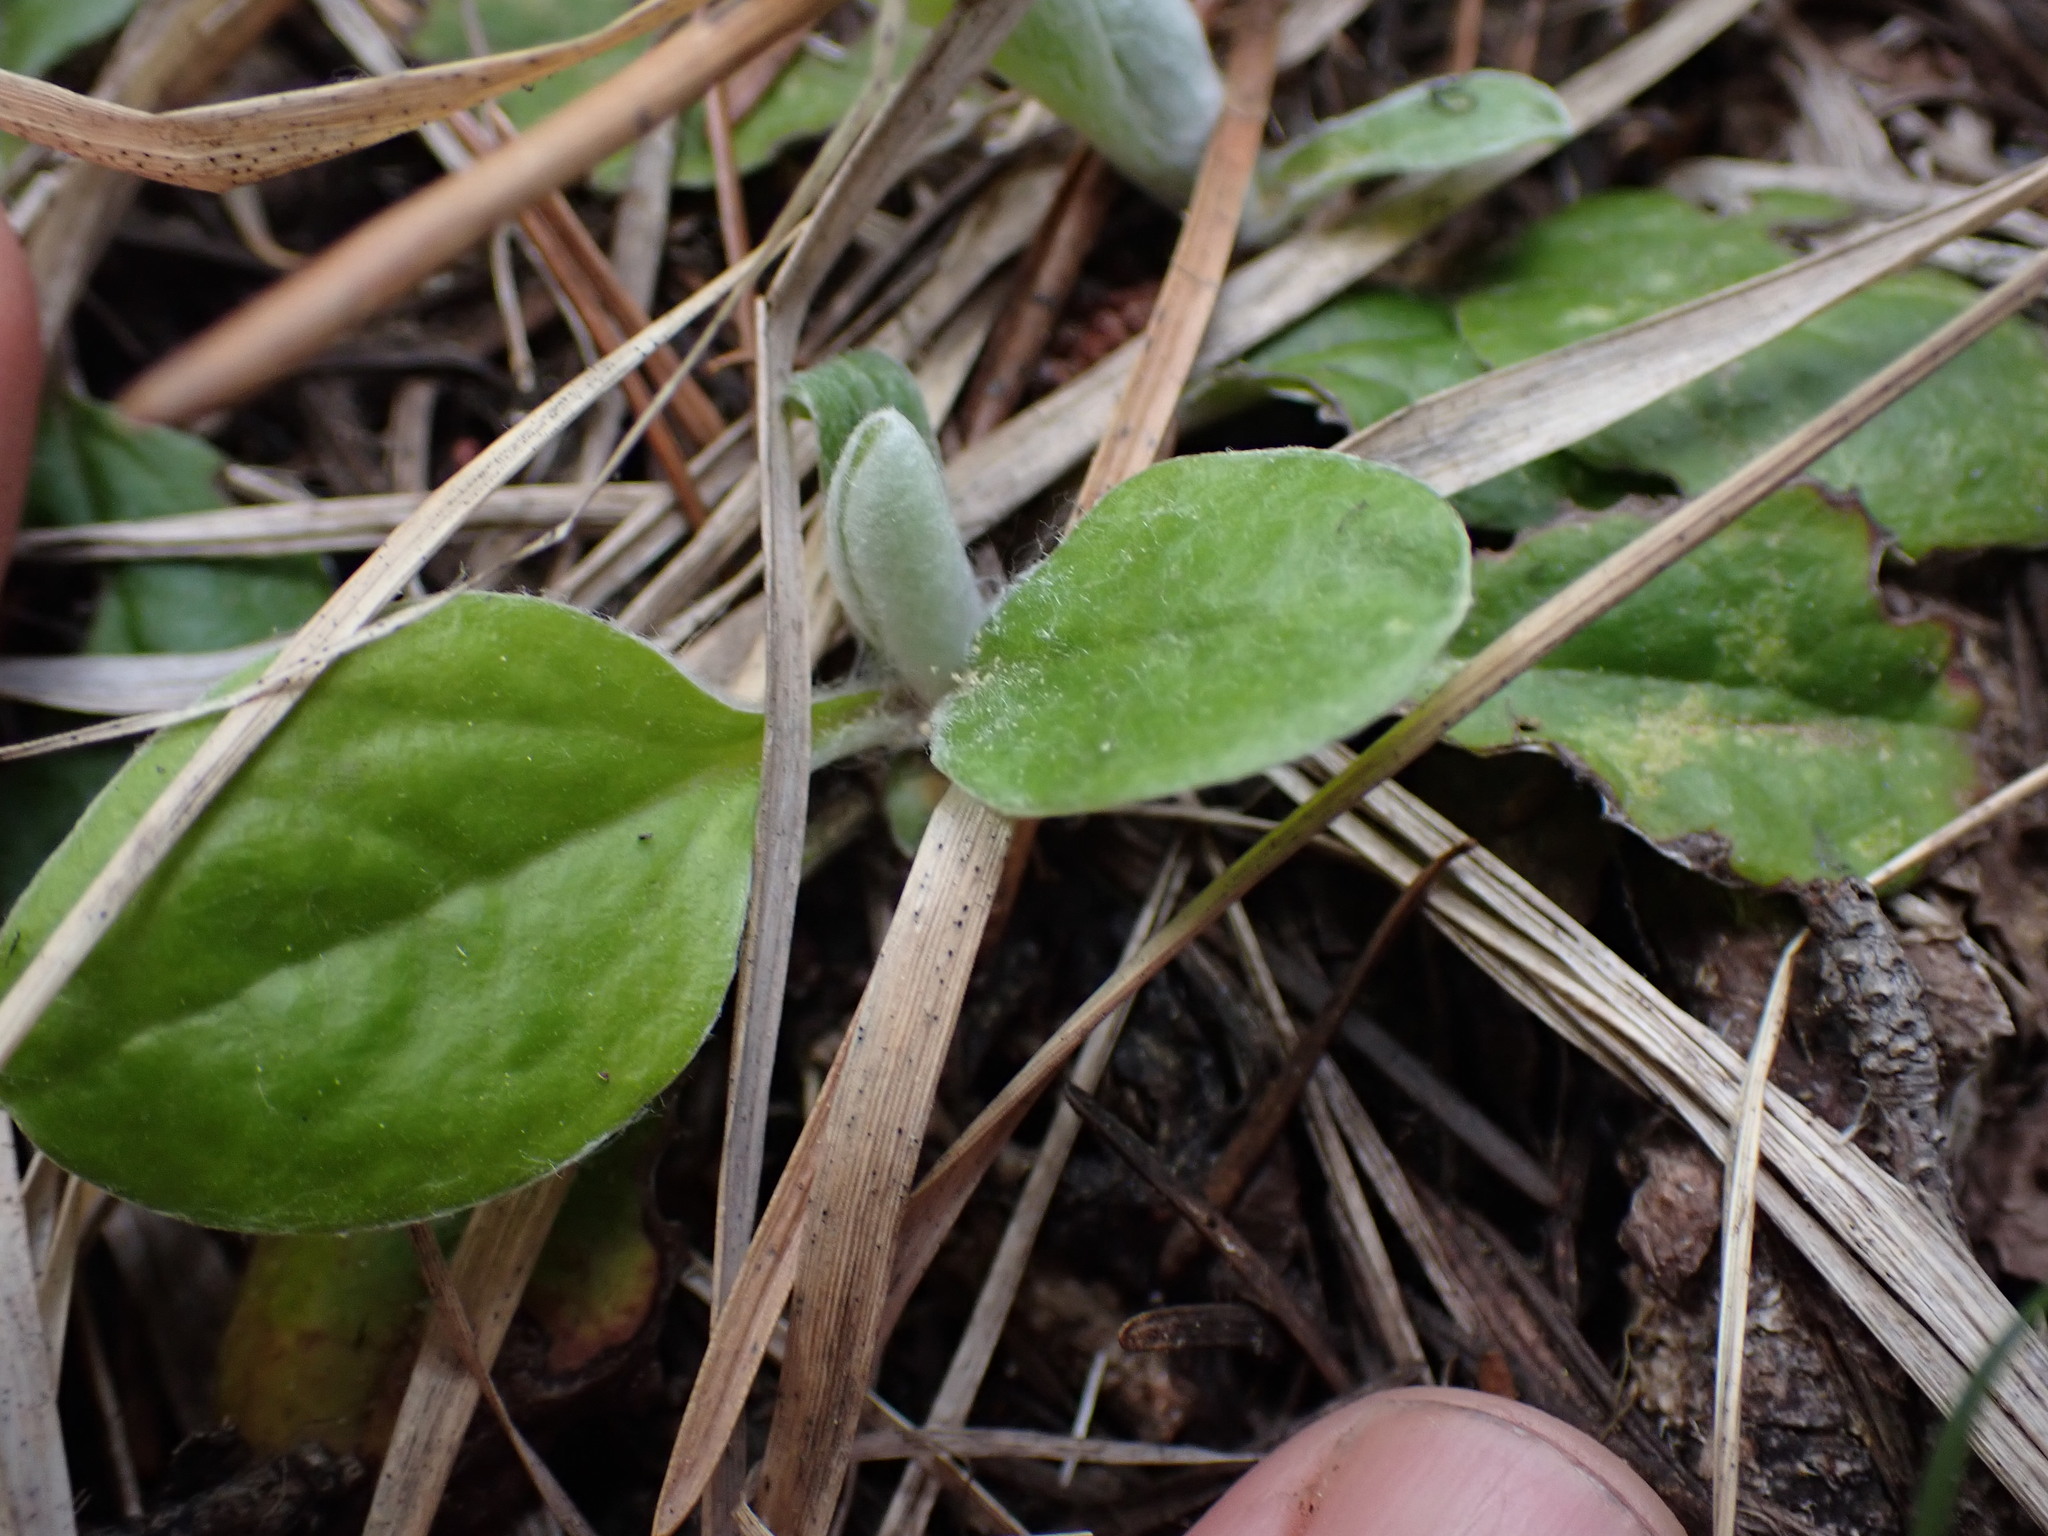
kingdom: Plantae
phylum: Tracheophyta
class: Magnoliopsida
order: Asterales
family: Asteraceae
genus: Antennaria
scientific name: Antennaria racemosa
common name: Racemose pussytoes
